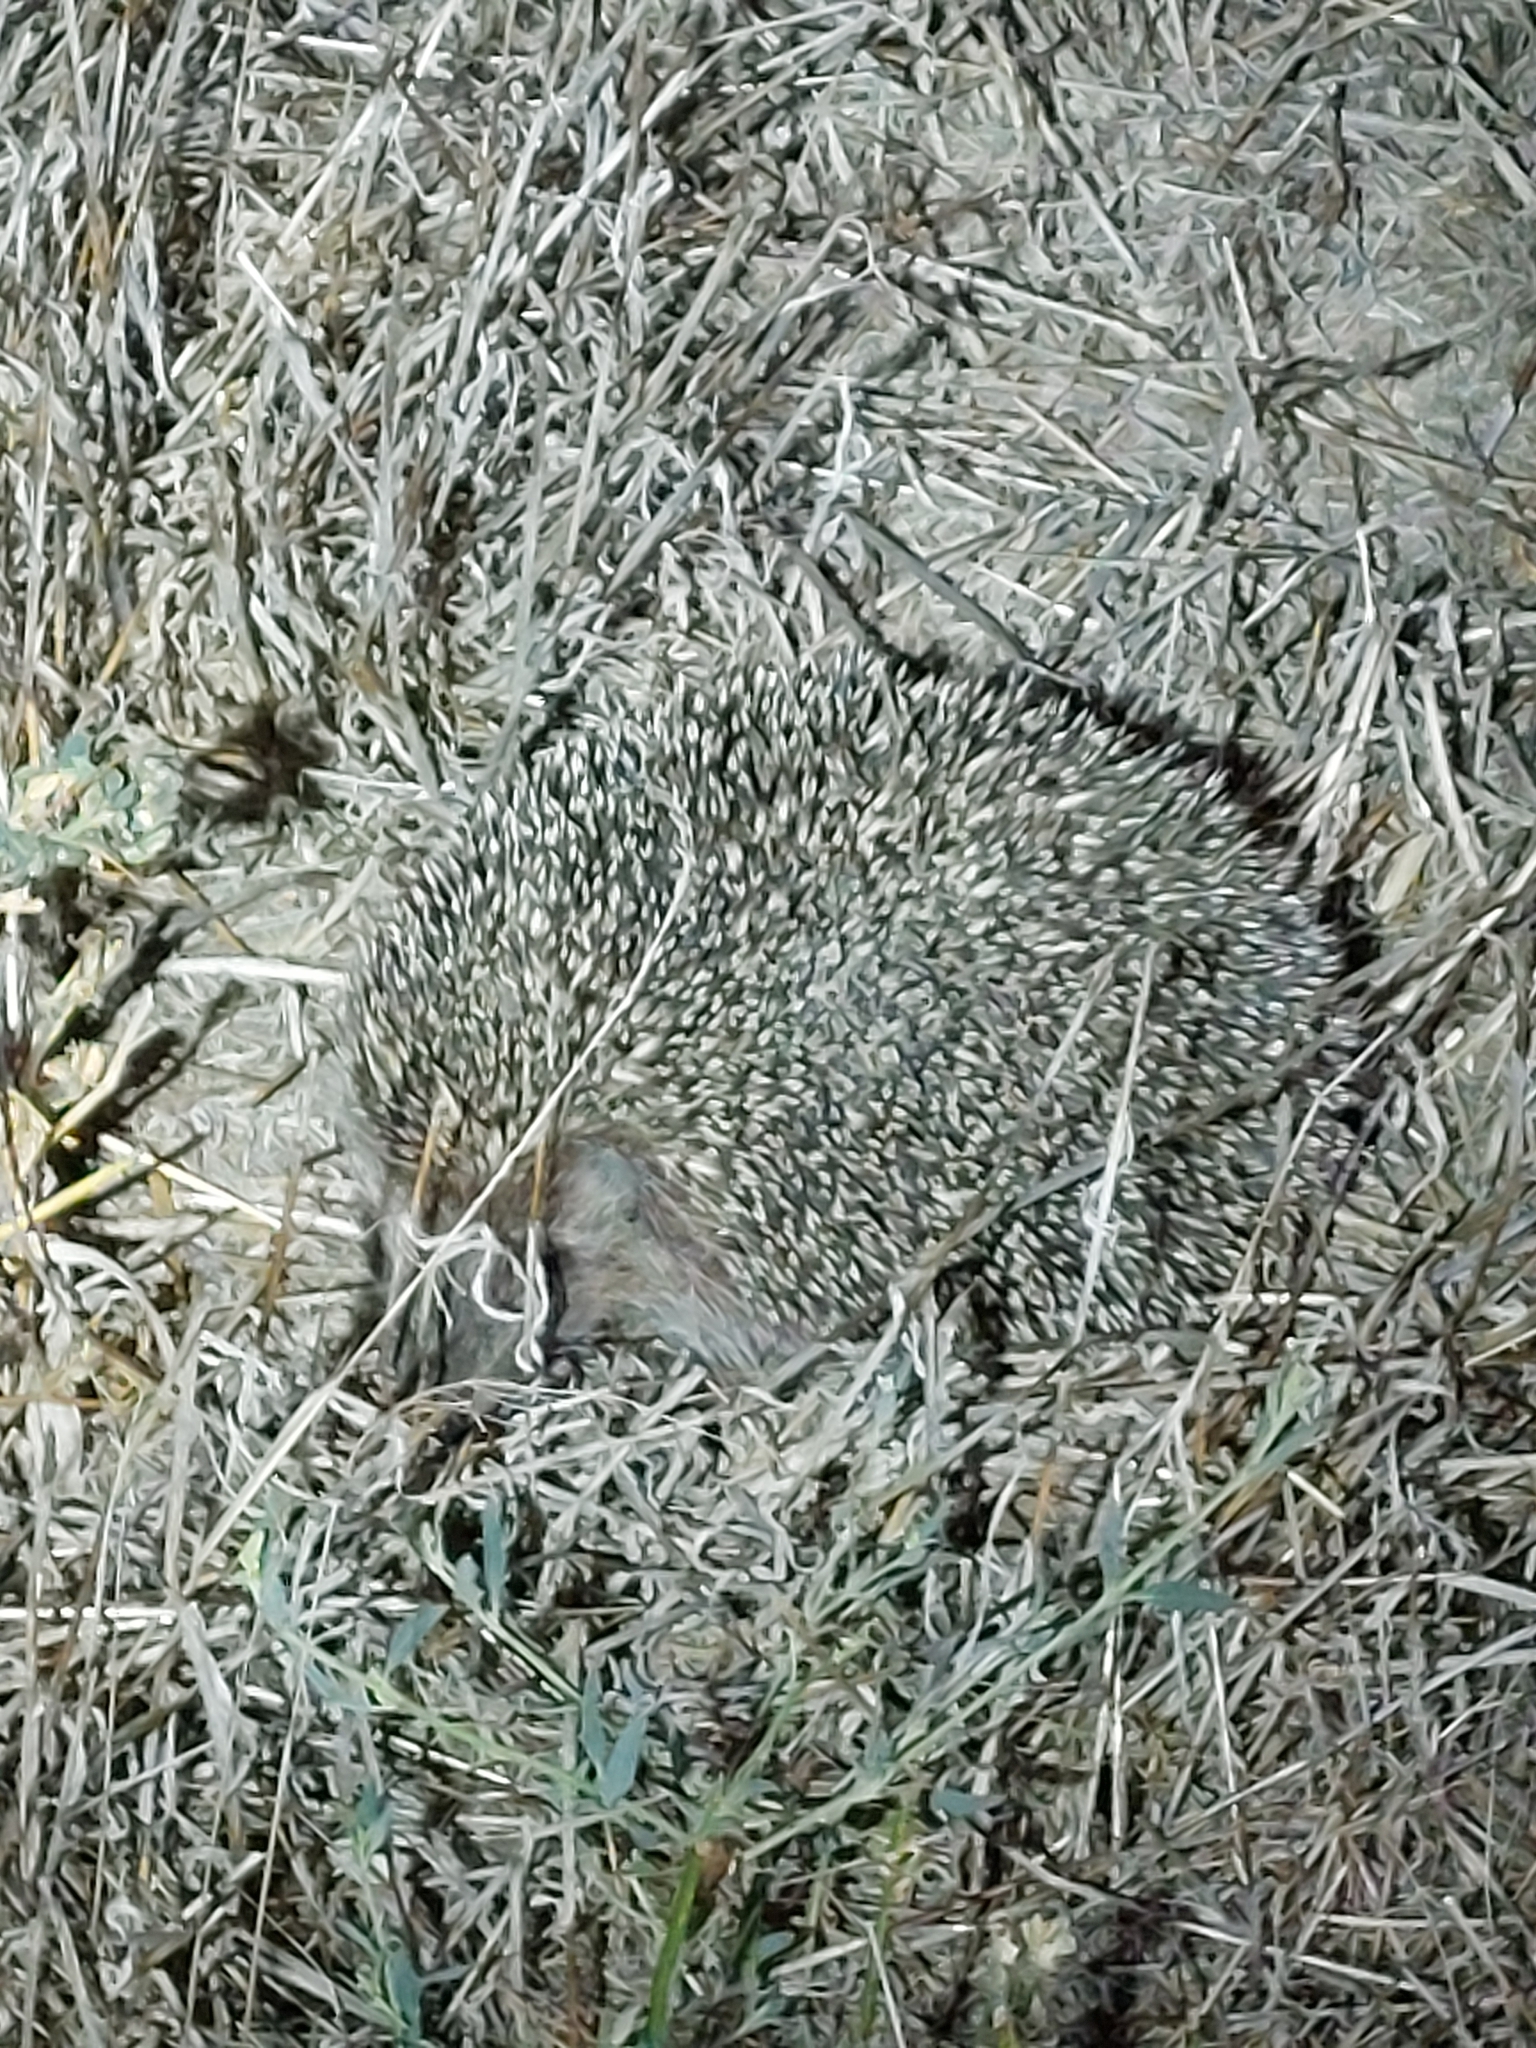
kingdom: Animalia
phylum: Chordata
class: Mammalia
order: Erinaceomorpha
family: Erinaceidae
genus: Erinaceus
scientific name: Erinaceus roumanicus
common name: Northern white-breasted hedgehog
